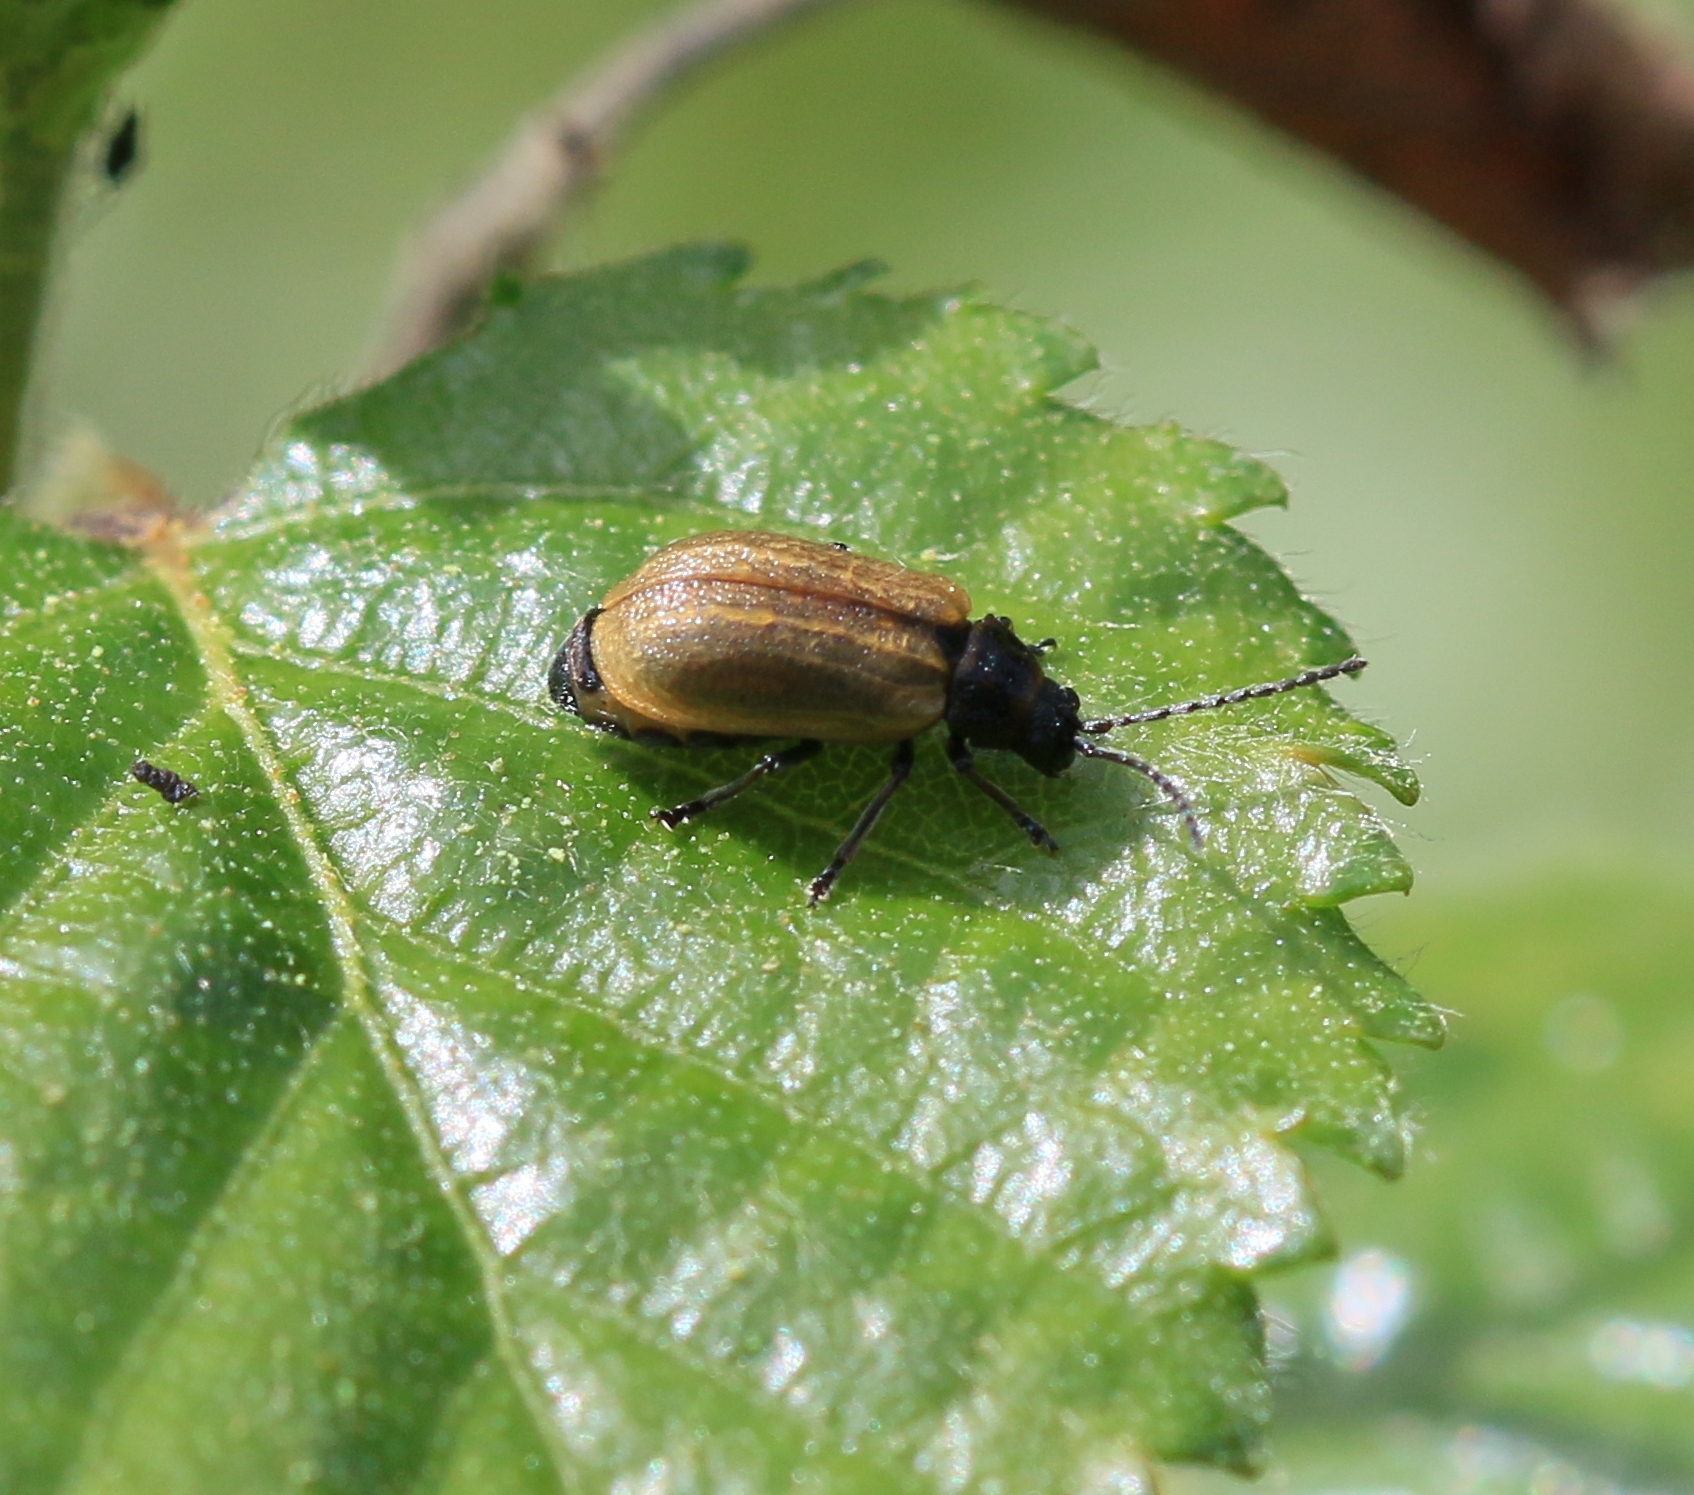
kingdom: Animalia
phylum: Arthropoda
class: Insecta
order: Coleoptera
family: Chrysomelidae
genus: Lochmaea
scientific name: Lochmaea caprea
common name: Willow leaf beetle
